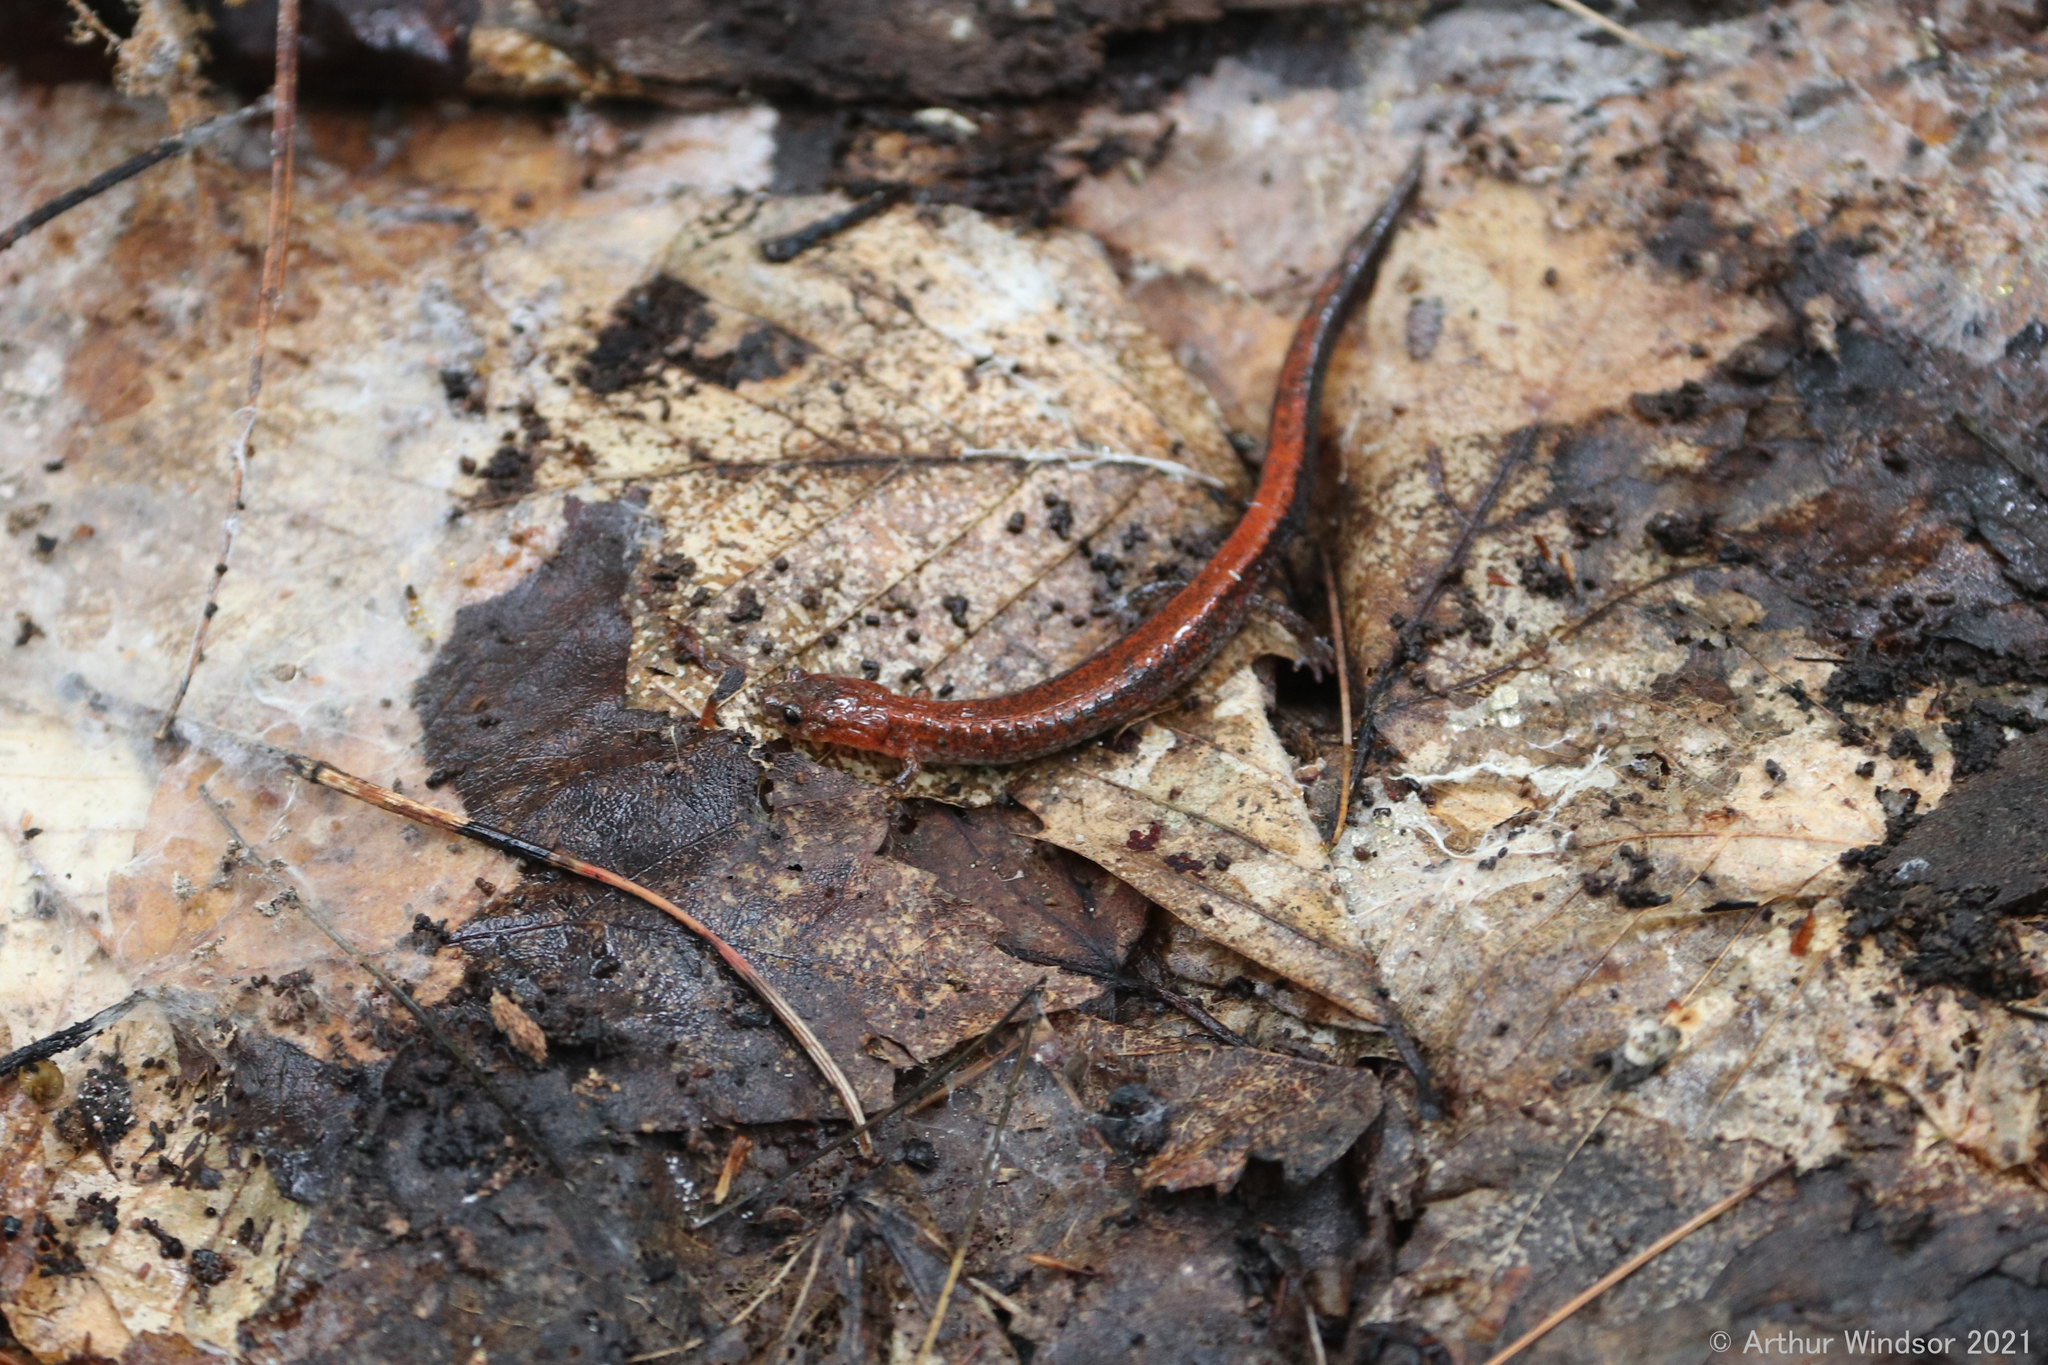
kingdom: Animalia
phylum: Chordata
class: Amphibia
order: Caudata
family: Plethodontidae
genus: Plethodon
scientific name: Plethodon cinereus
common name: Redback salamander
